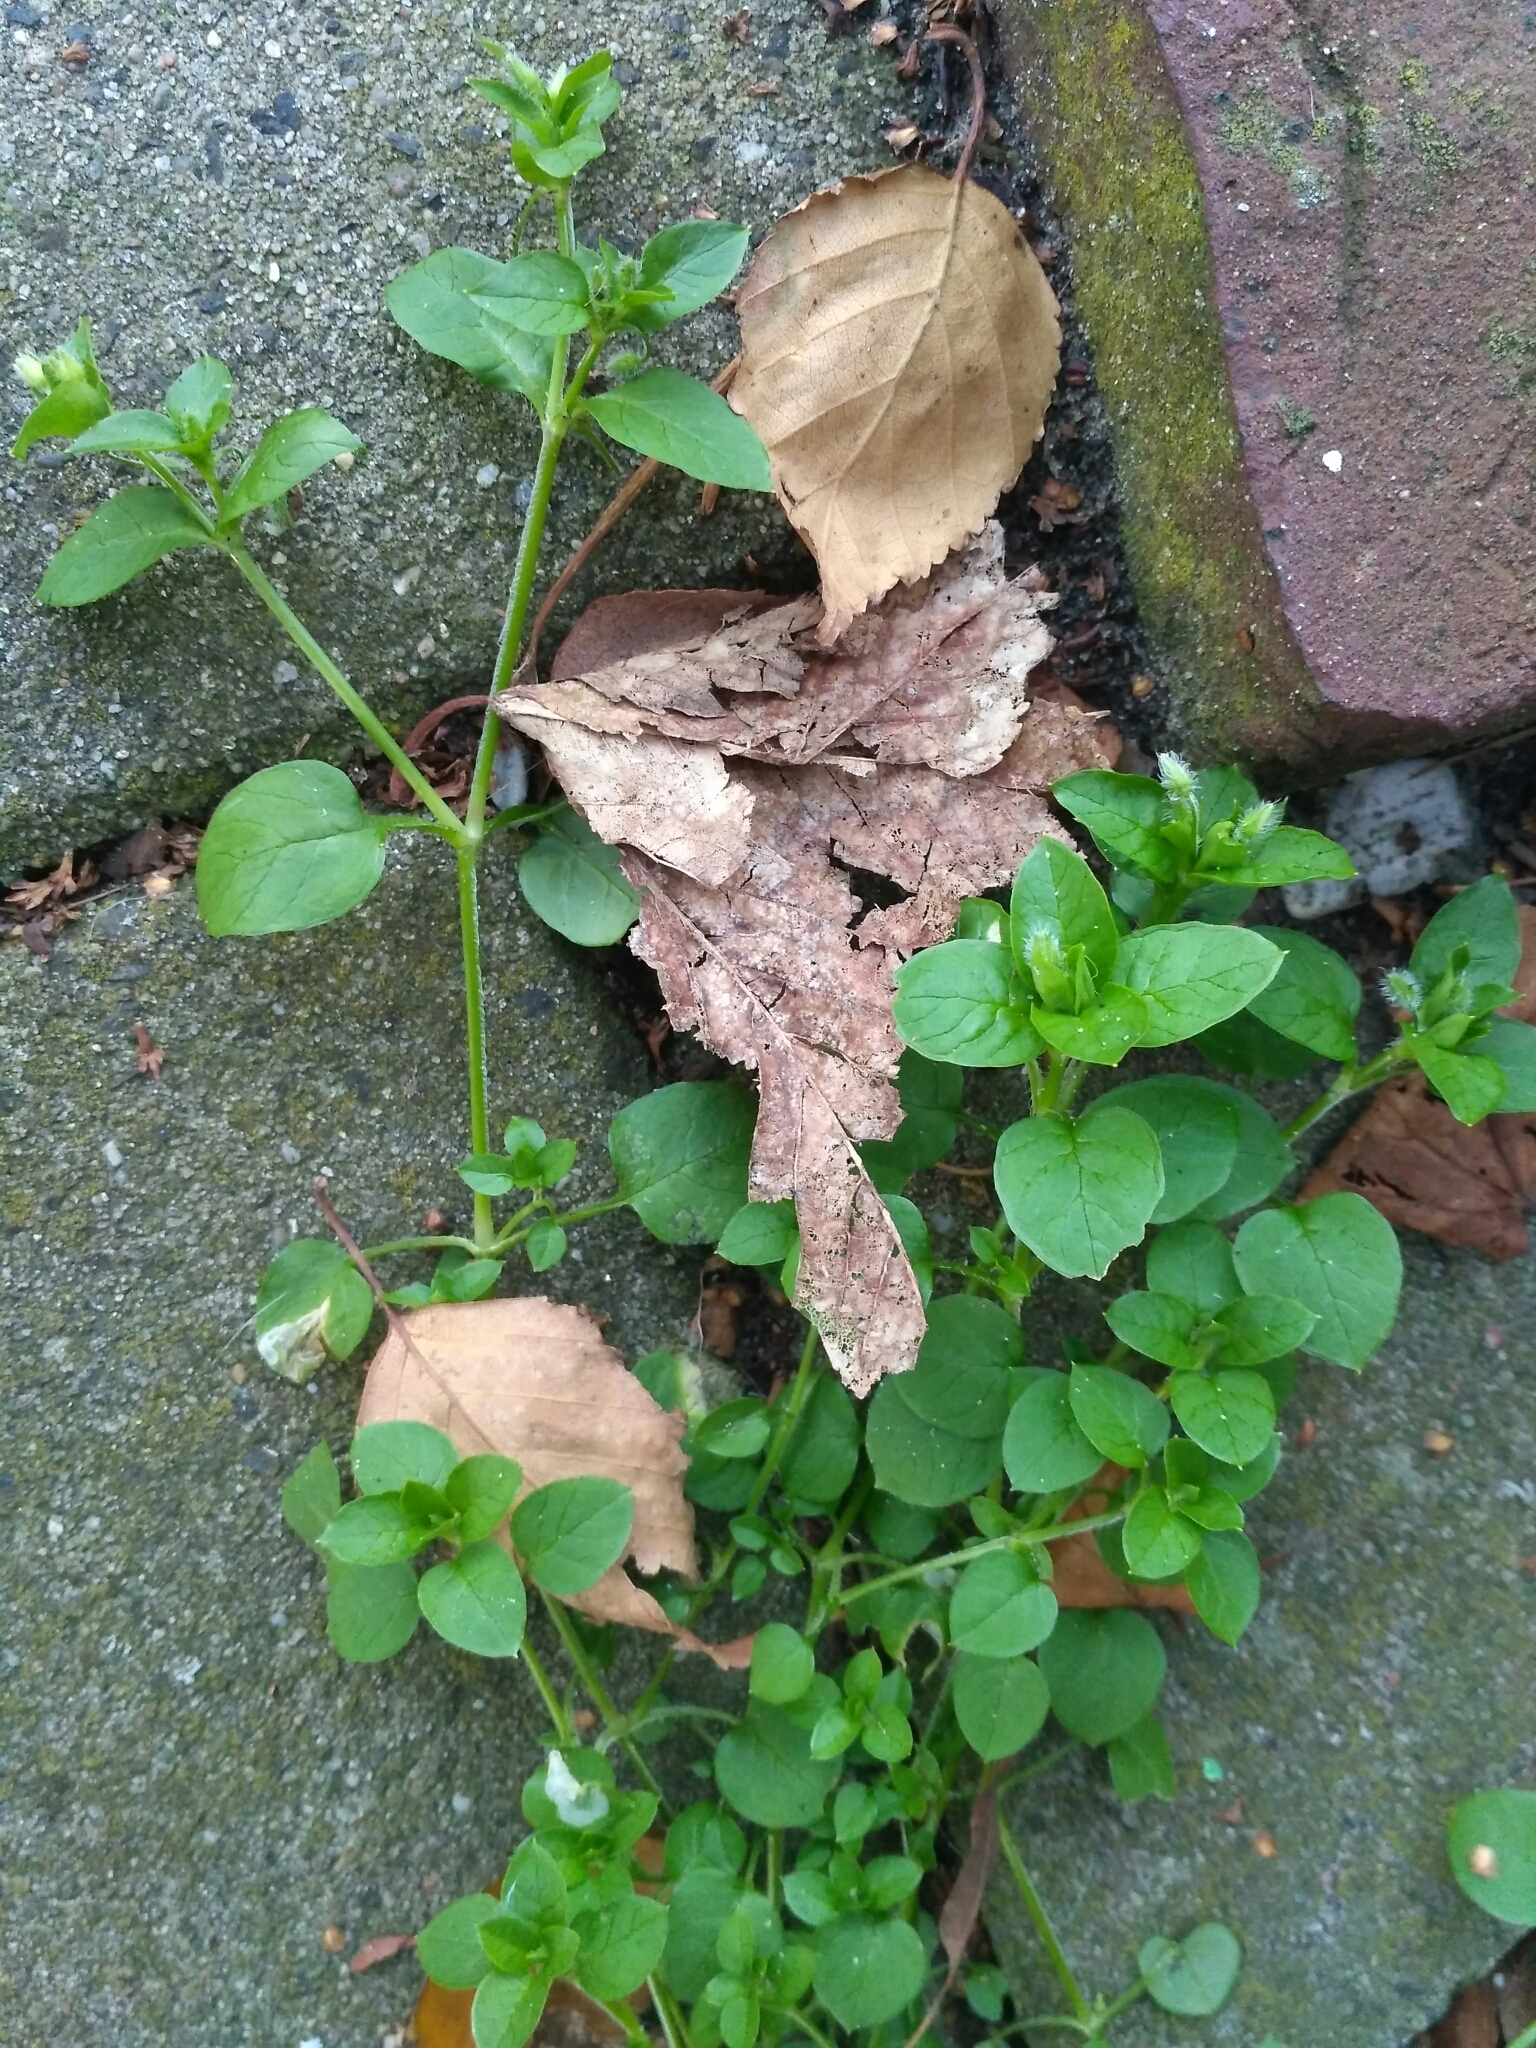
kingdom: Plantae
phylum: Tracheophyta
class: Magnoliopsida
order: Caryophyllales
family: Caryophyllaceae
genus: Stellaria
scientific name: Stellaria media
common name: Common chickweed
